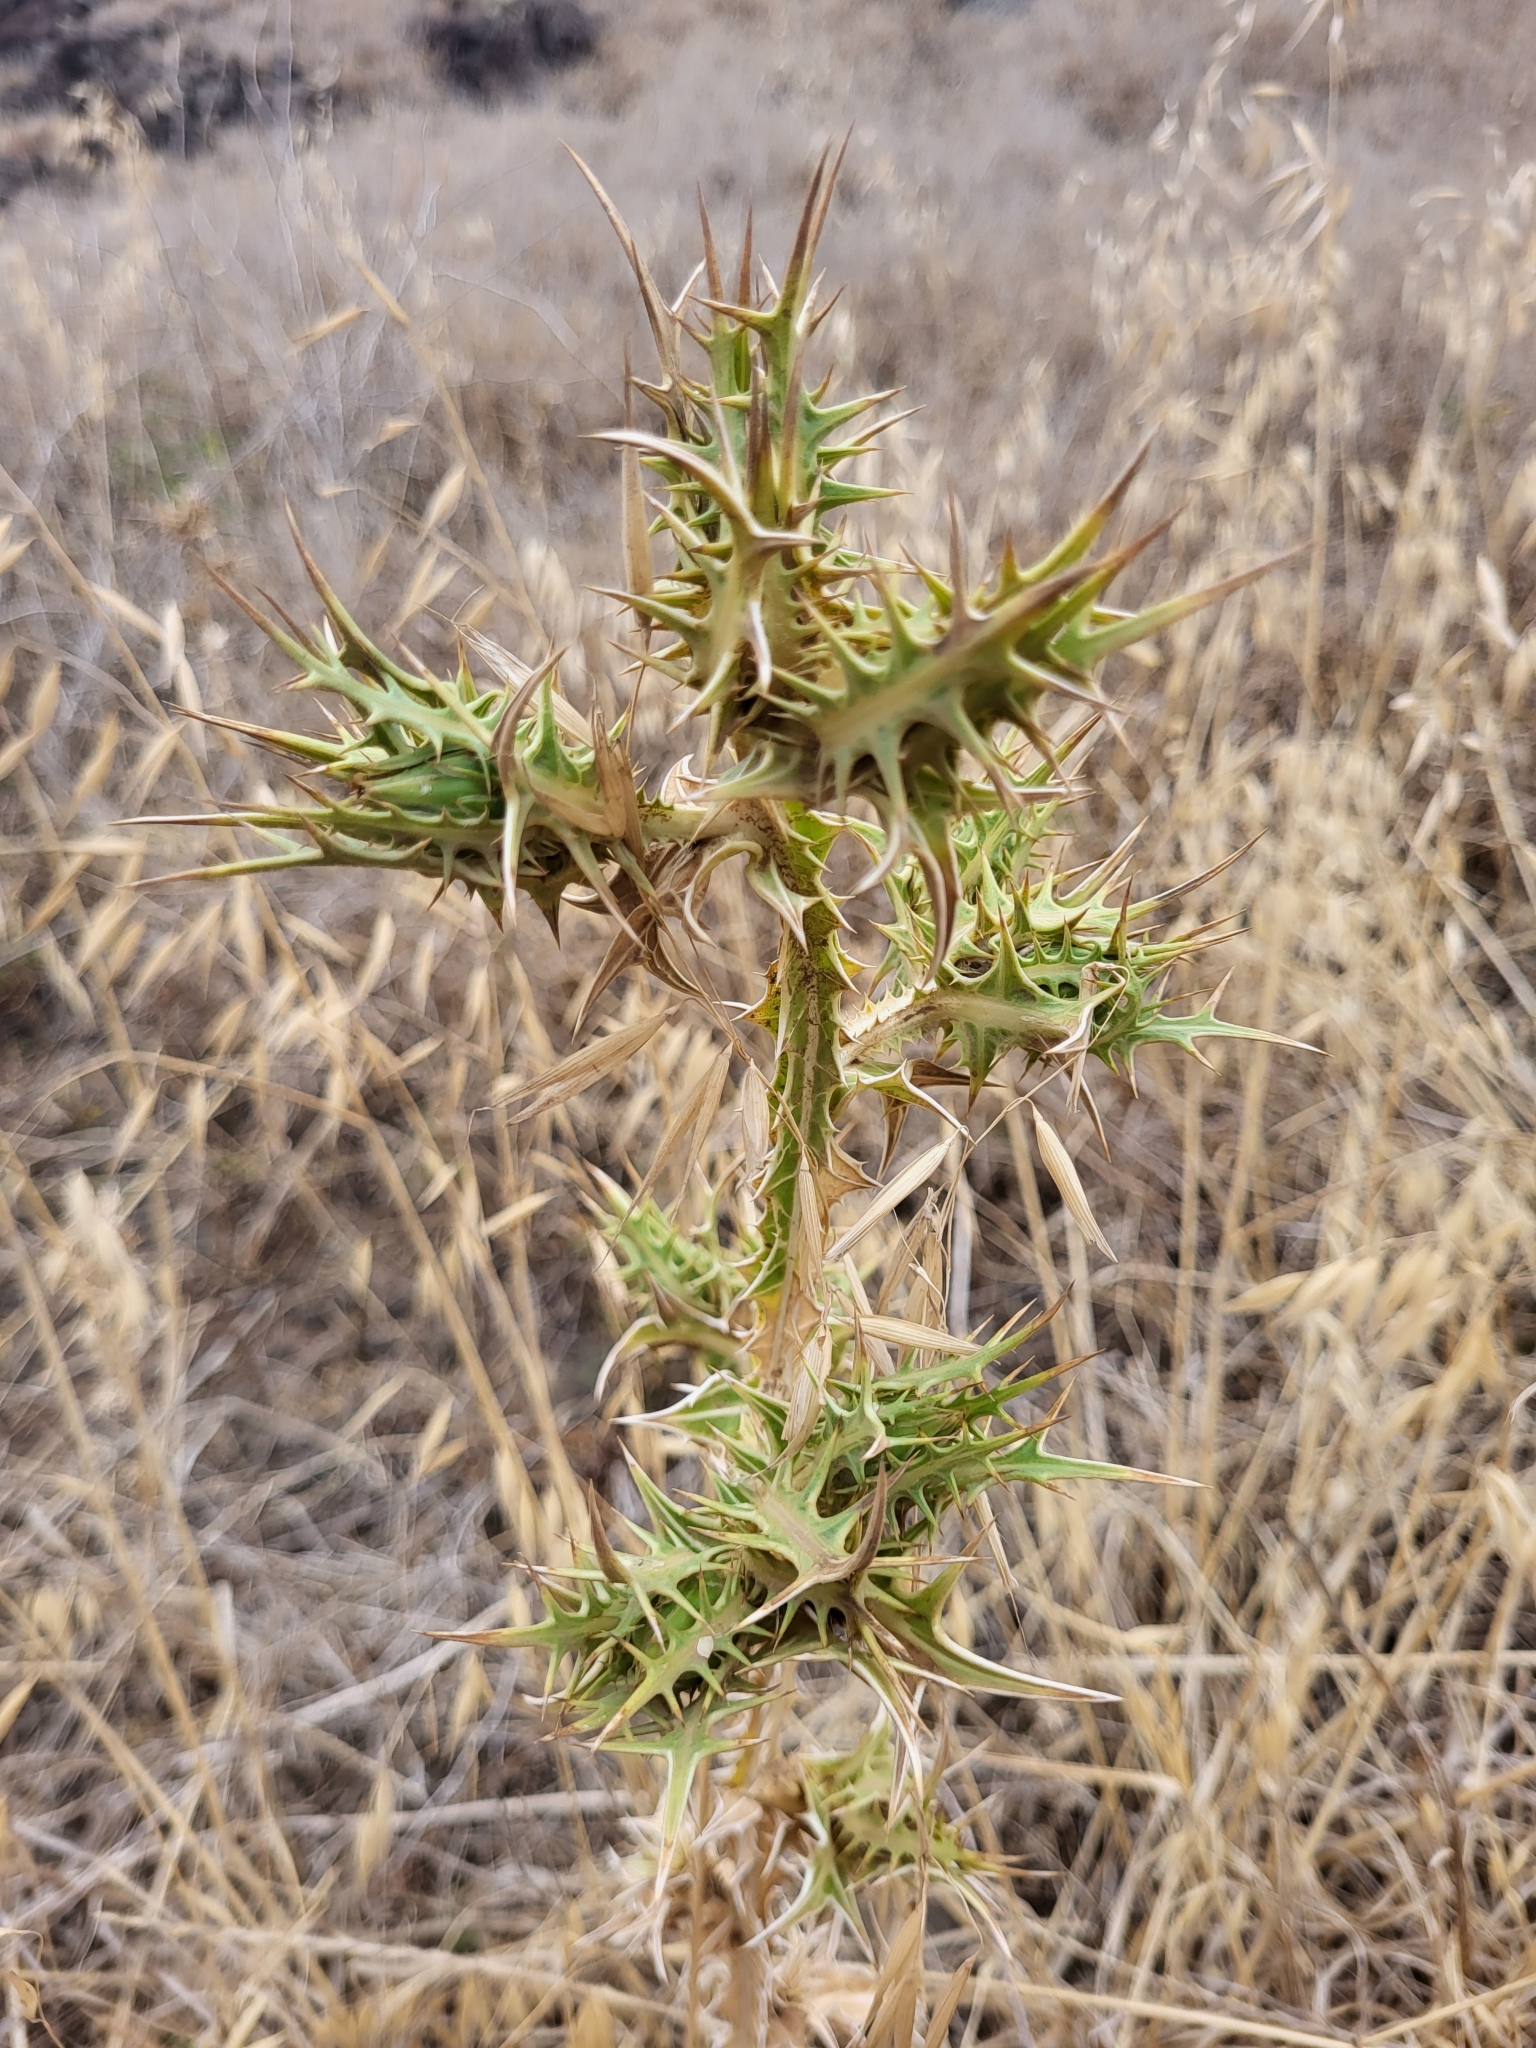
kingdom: Plantae
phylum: Tracheophyta
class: Magnoliopsida
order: Asterales
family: Asteraceae
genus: Scolymus
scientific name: Scolymus maculatus
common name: Spotted thistle
